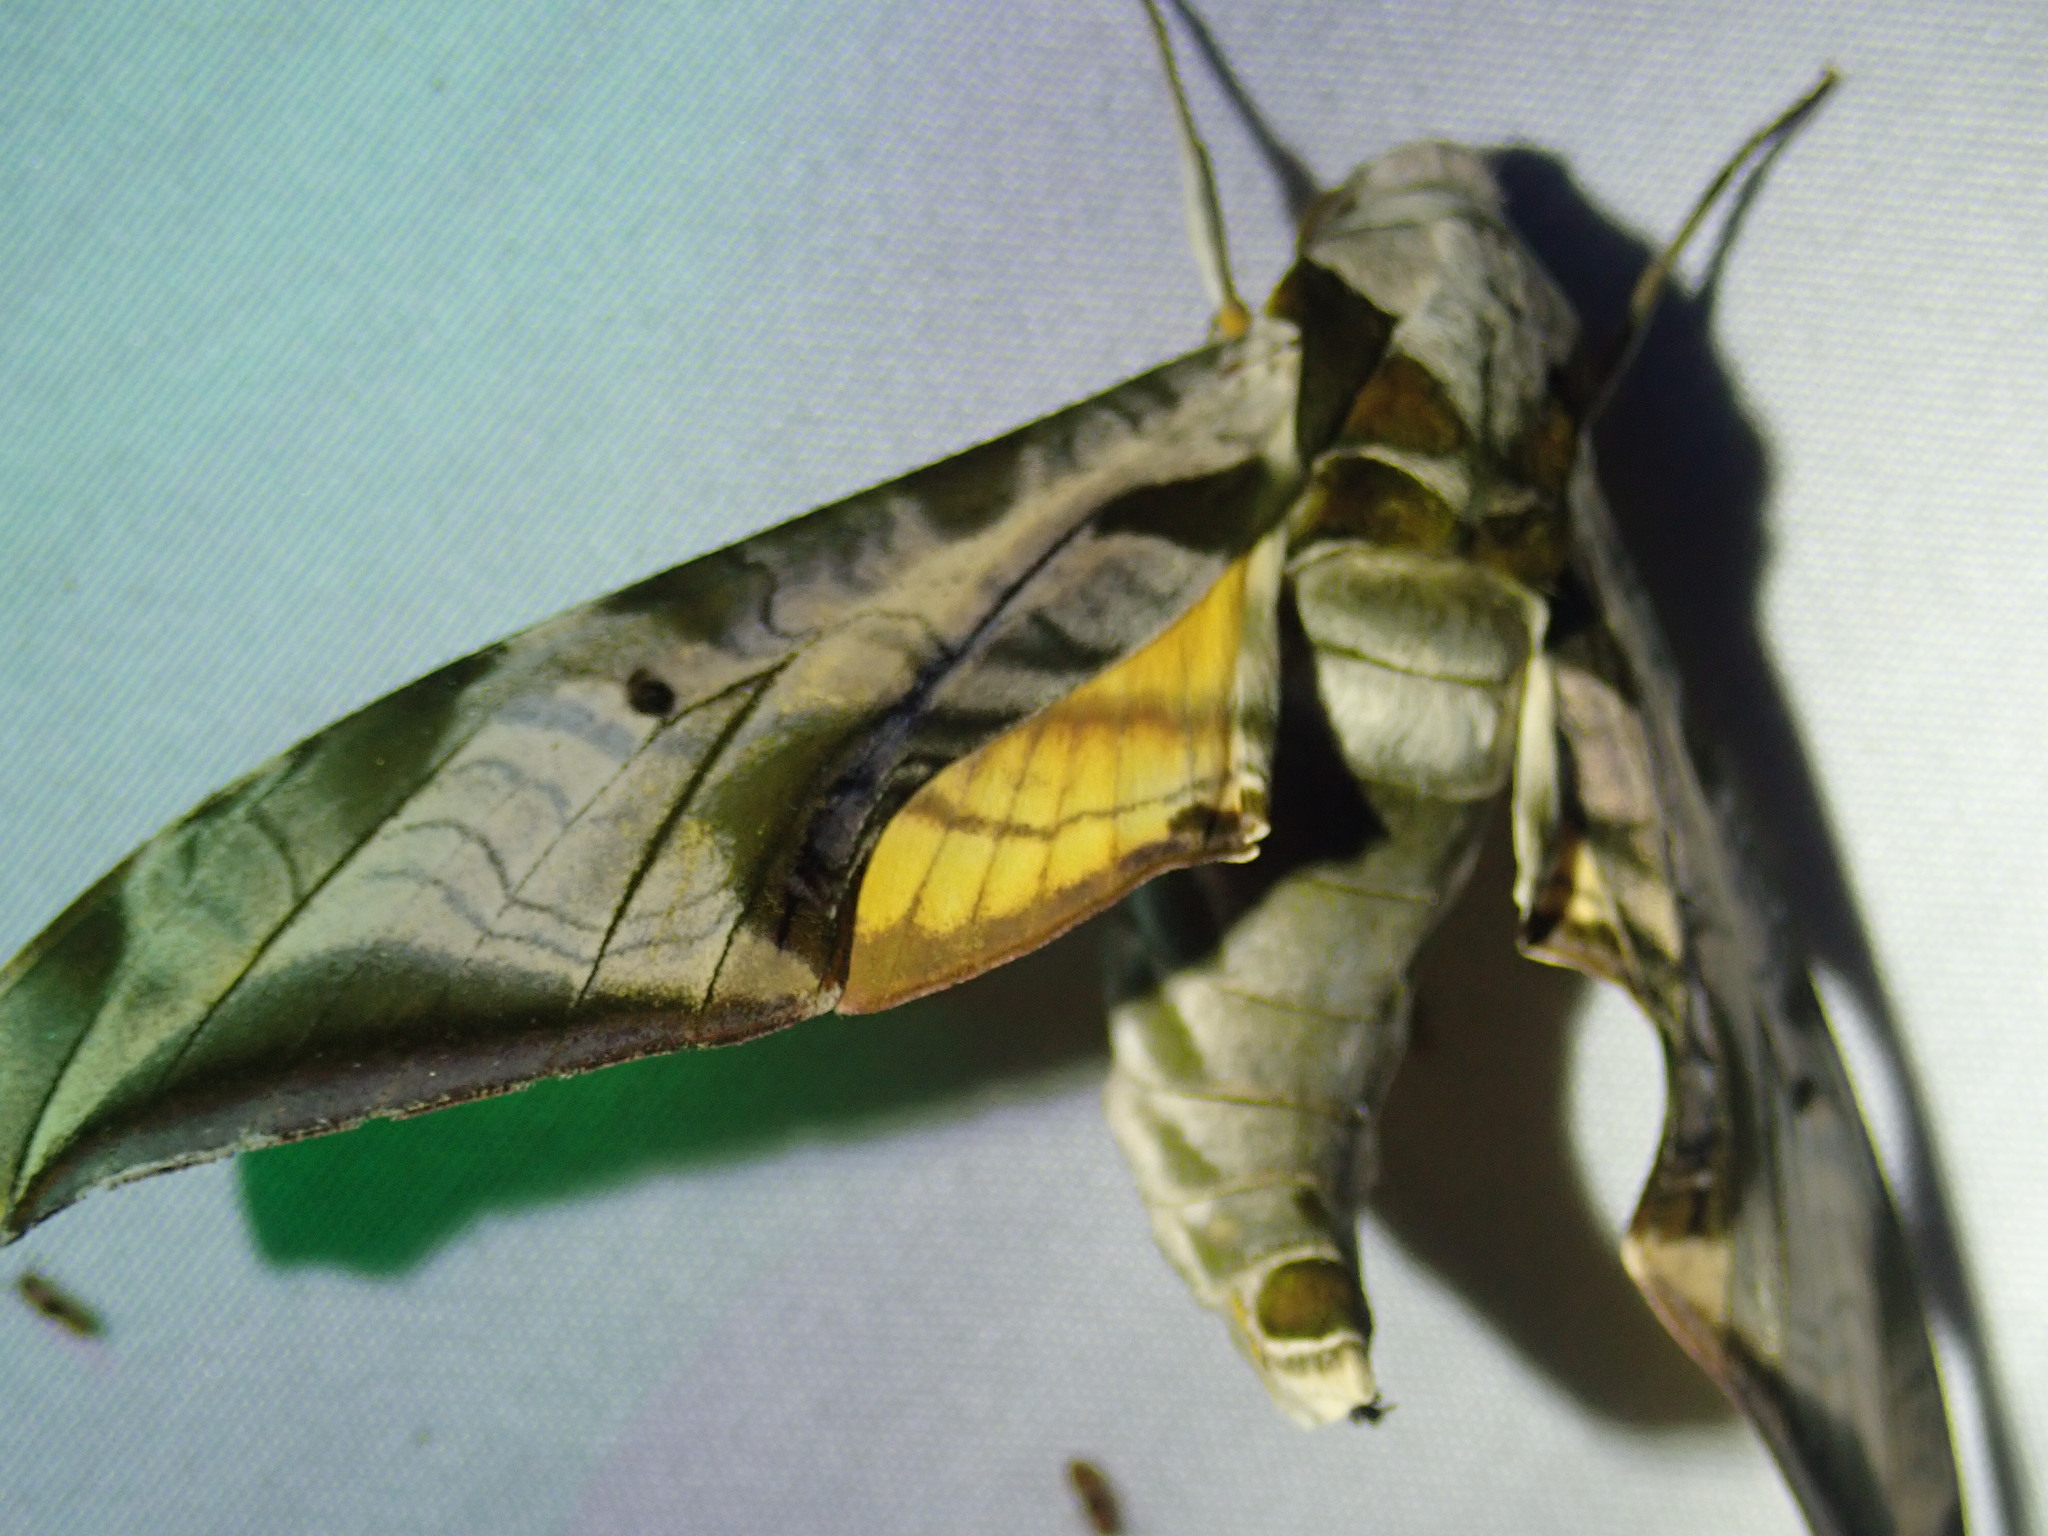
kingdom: Animalia
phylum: Arthropoda
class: Insecta
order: Lepidoptera
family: Sphingidae
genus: Protambulyx
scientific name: Protambulyx eurycles
